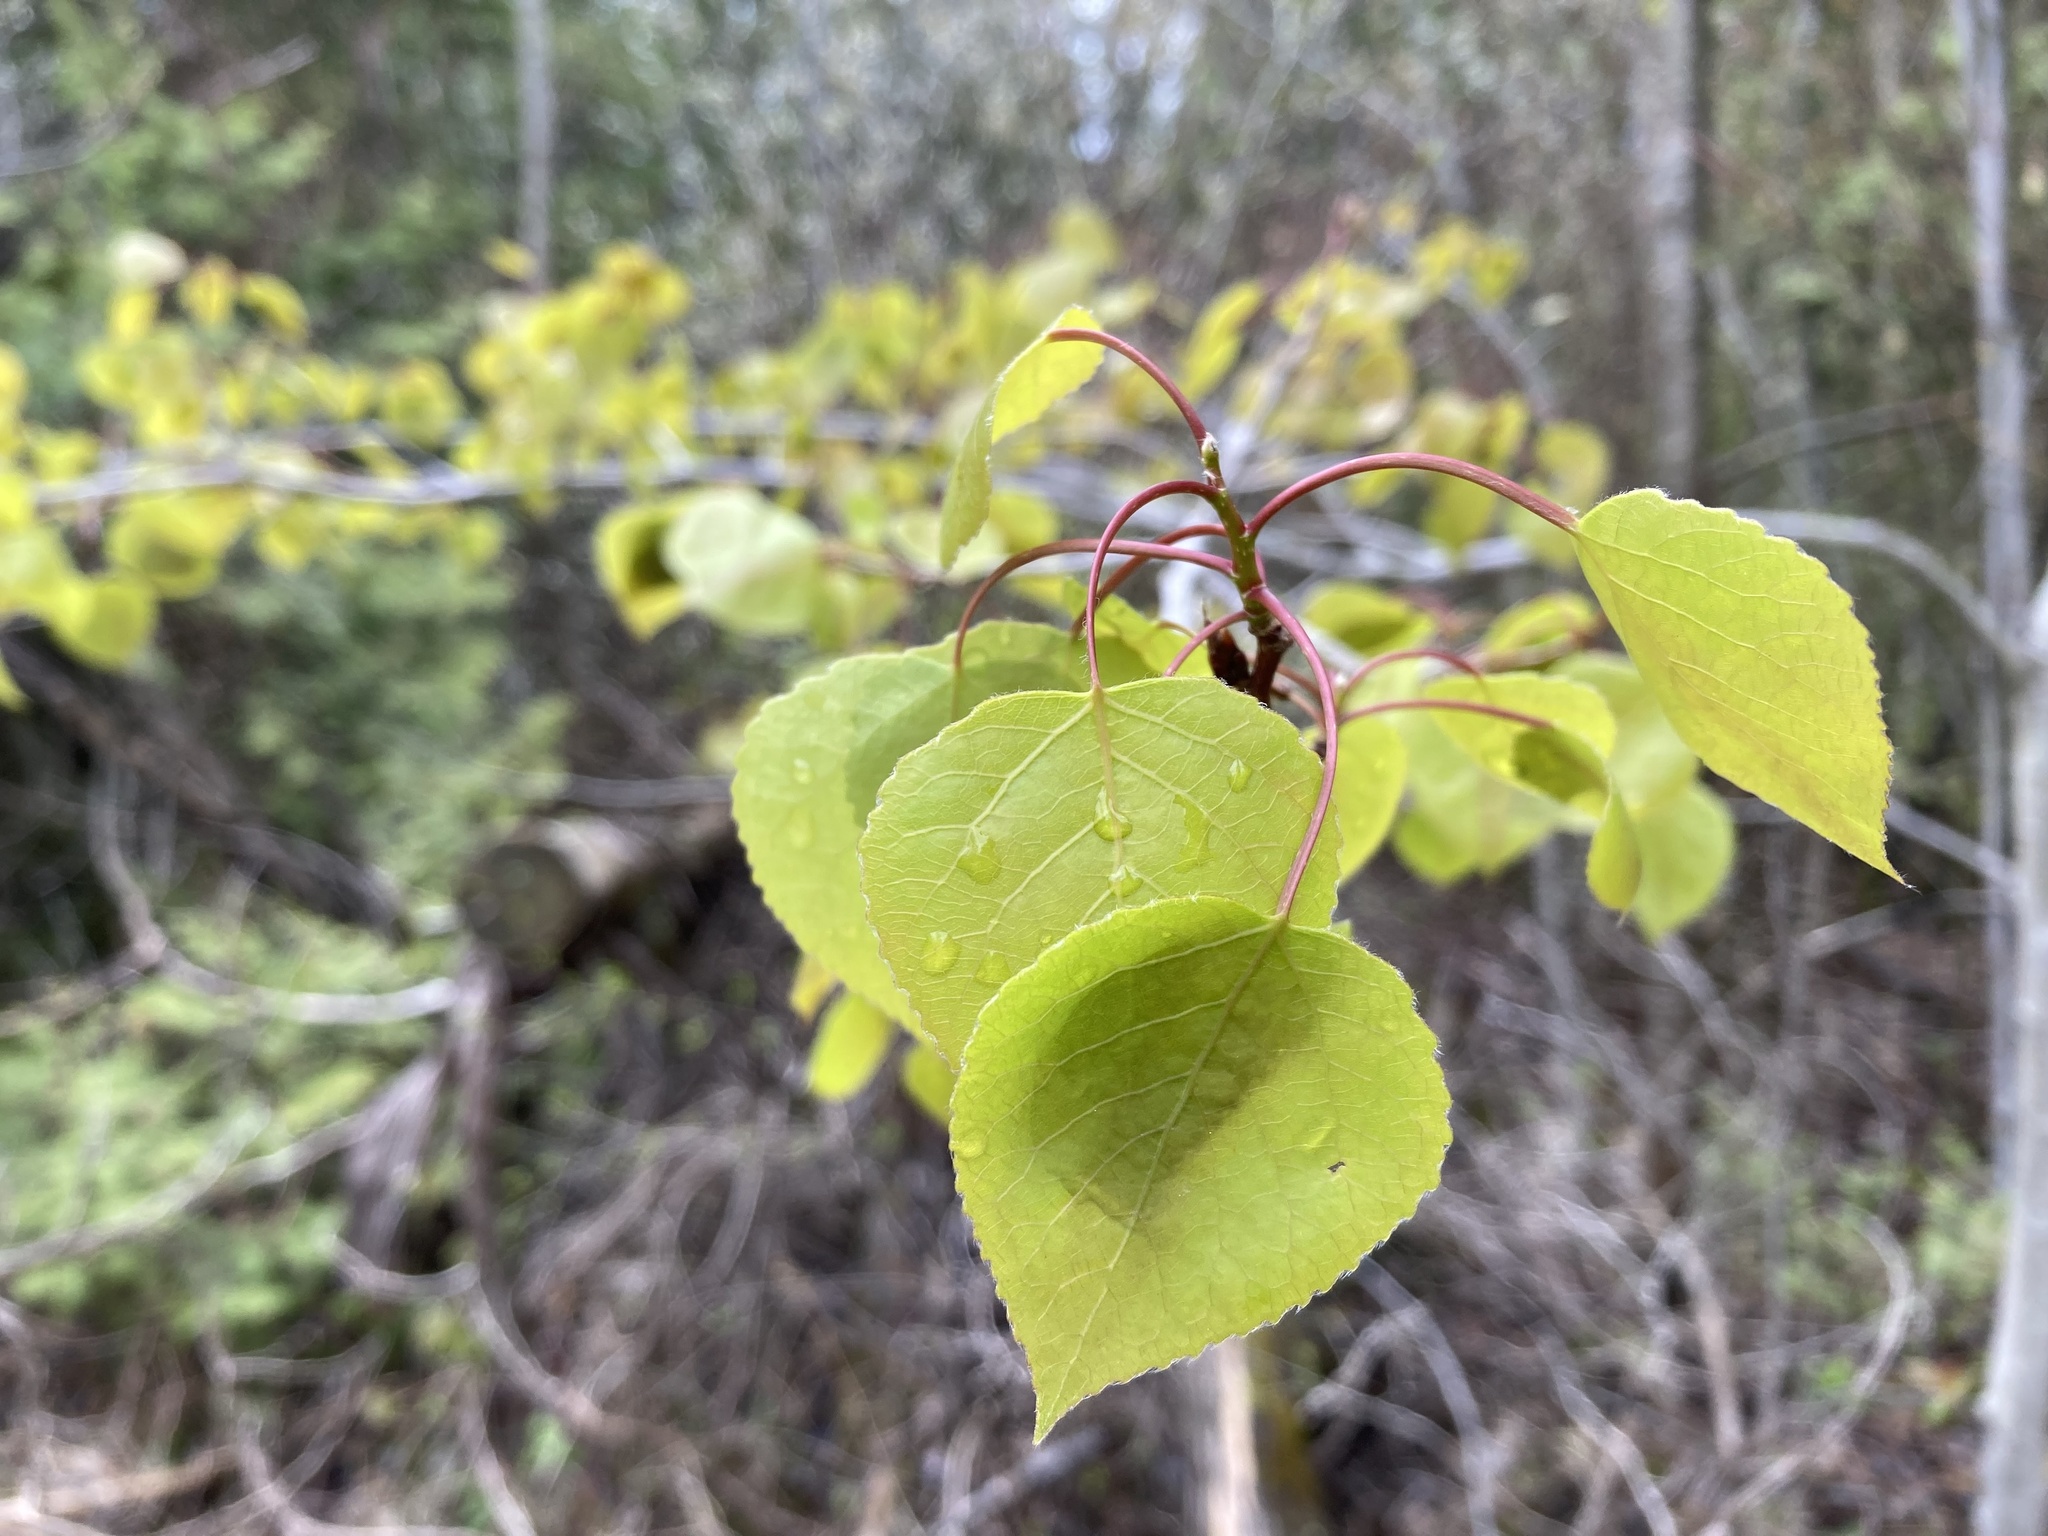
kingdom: Plantae
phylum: Tracheophyta
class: Magnoliopsida
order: Malpighiales
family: Salicaceae
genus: Populus
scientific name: Populus tremuloides
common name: Quaking aspen
